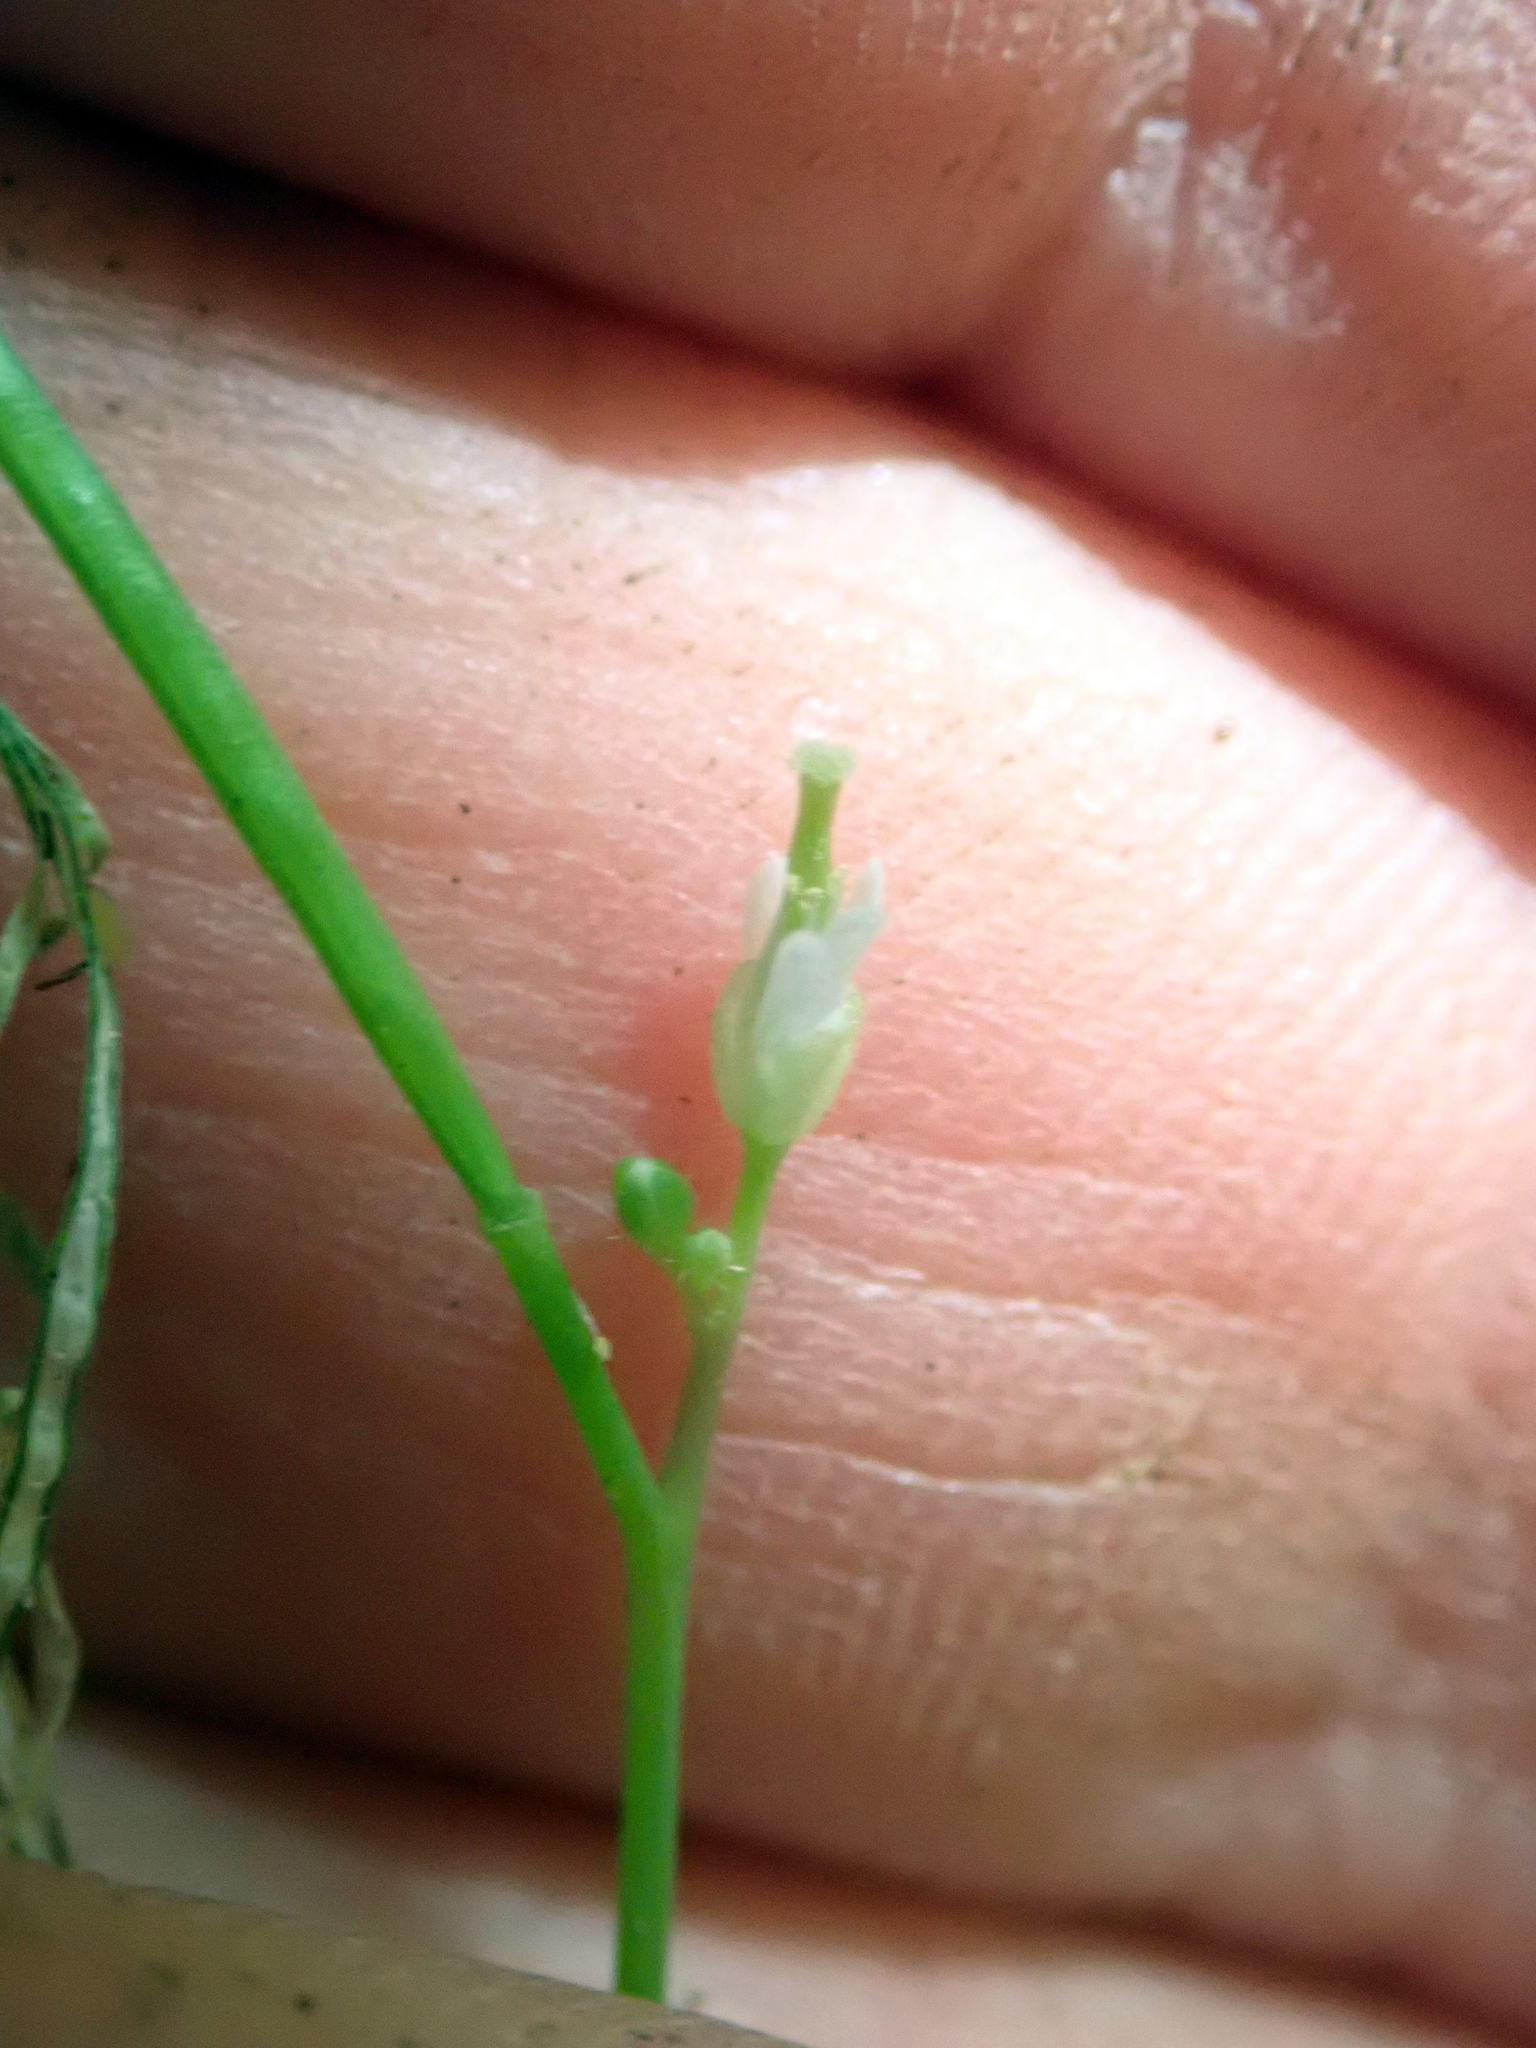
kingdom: Plantae
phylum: Tracheophyta
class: Magnoliopsida
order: Brassicales
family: Brassicaceae
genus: Cardamine
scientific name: Cardamine forsteri
